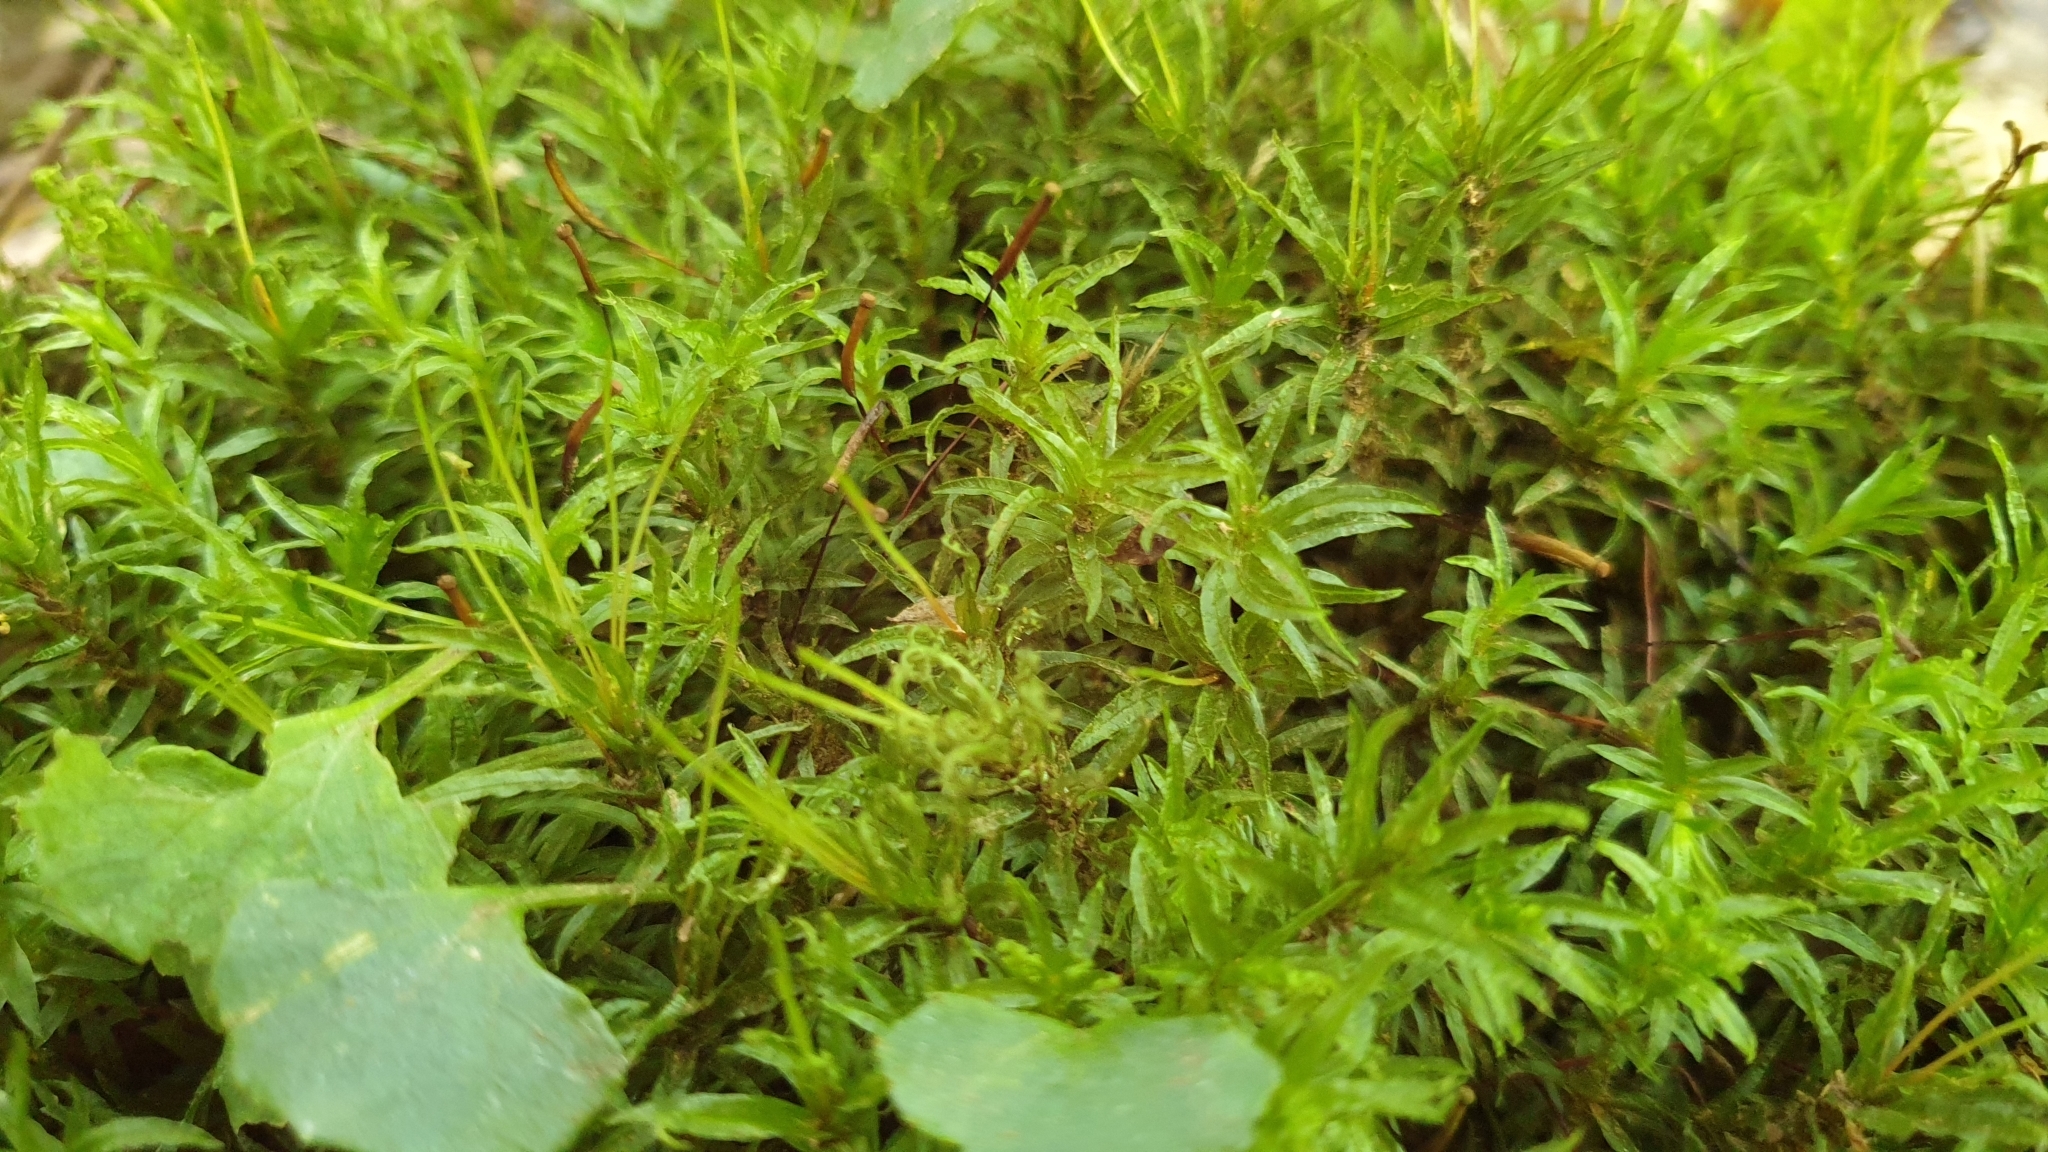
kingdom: Plantae
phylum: Bryophyta
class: Polytrichopsida
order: Polytrichales
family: Polytrichaceae
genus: Atrichum
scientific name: Atrichum androgynum
